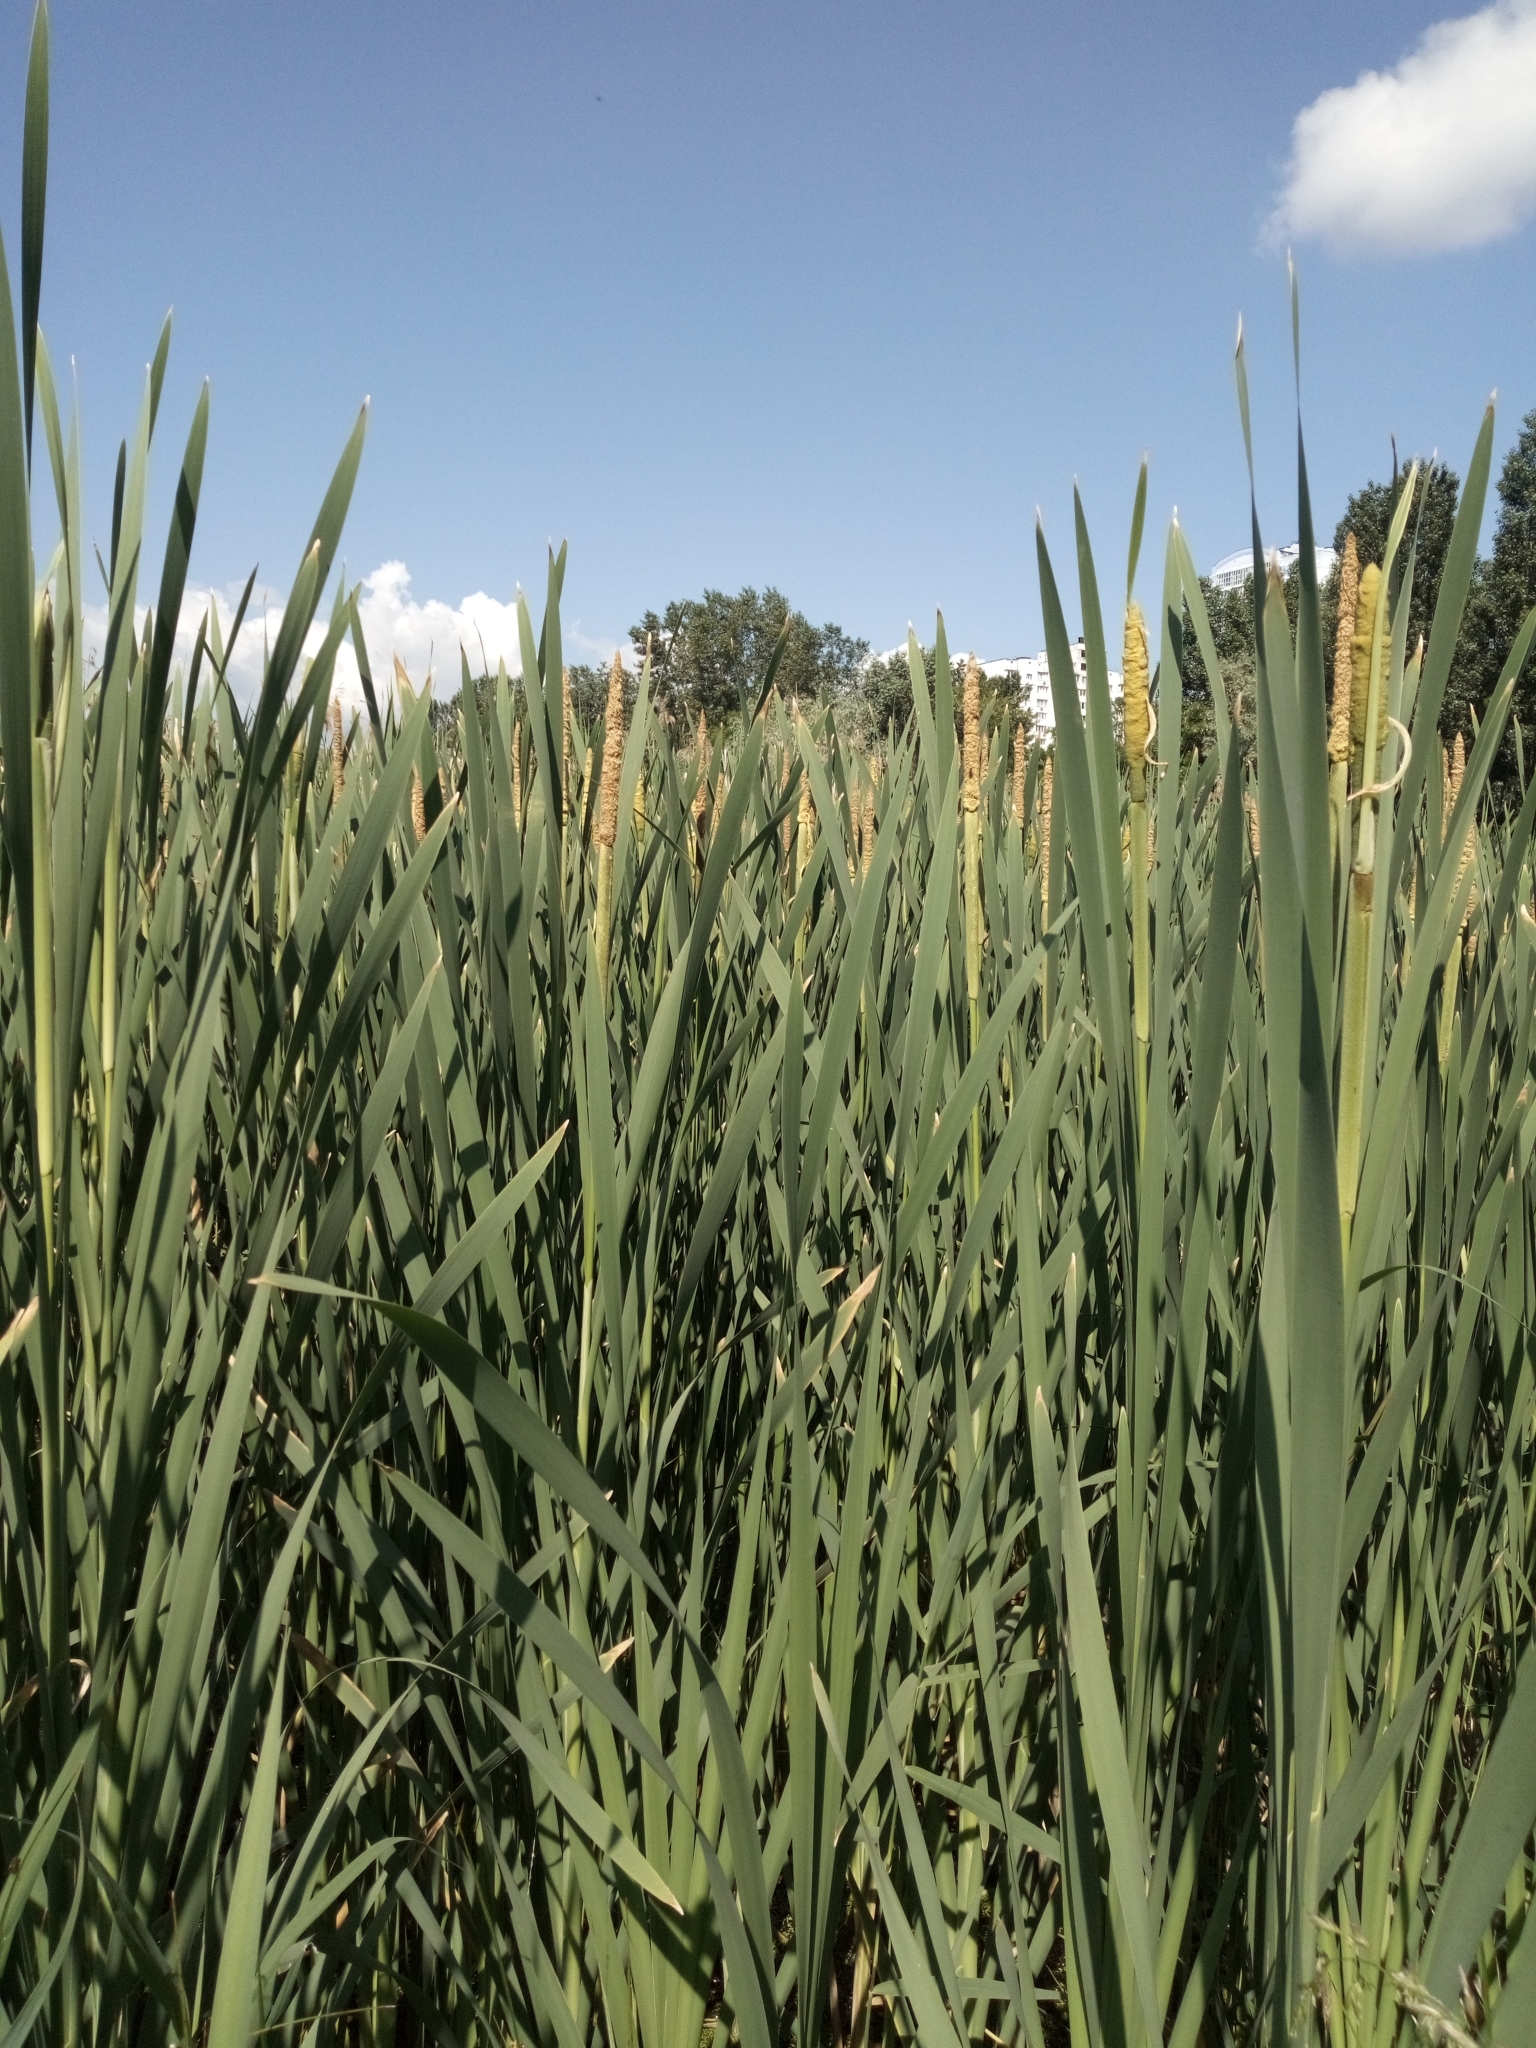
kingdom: Plantae
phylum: Tracheophyta
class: Liliopsida
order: Poales
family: Typhaceae
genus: Typha
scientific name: Typha latifolia
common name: Broadleaf cattail
